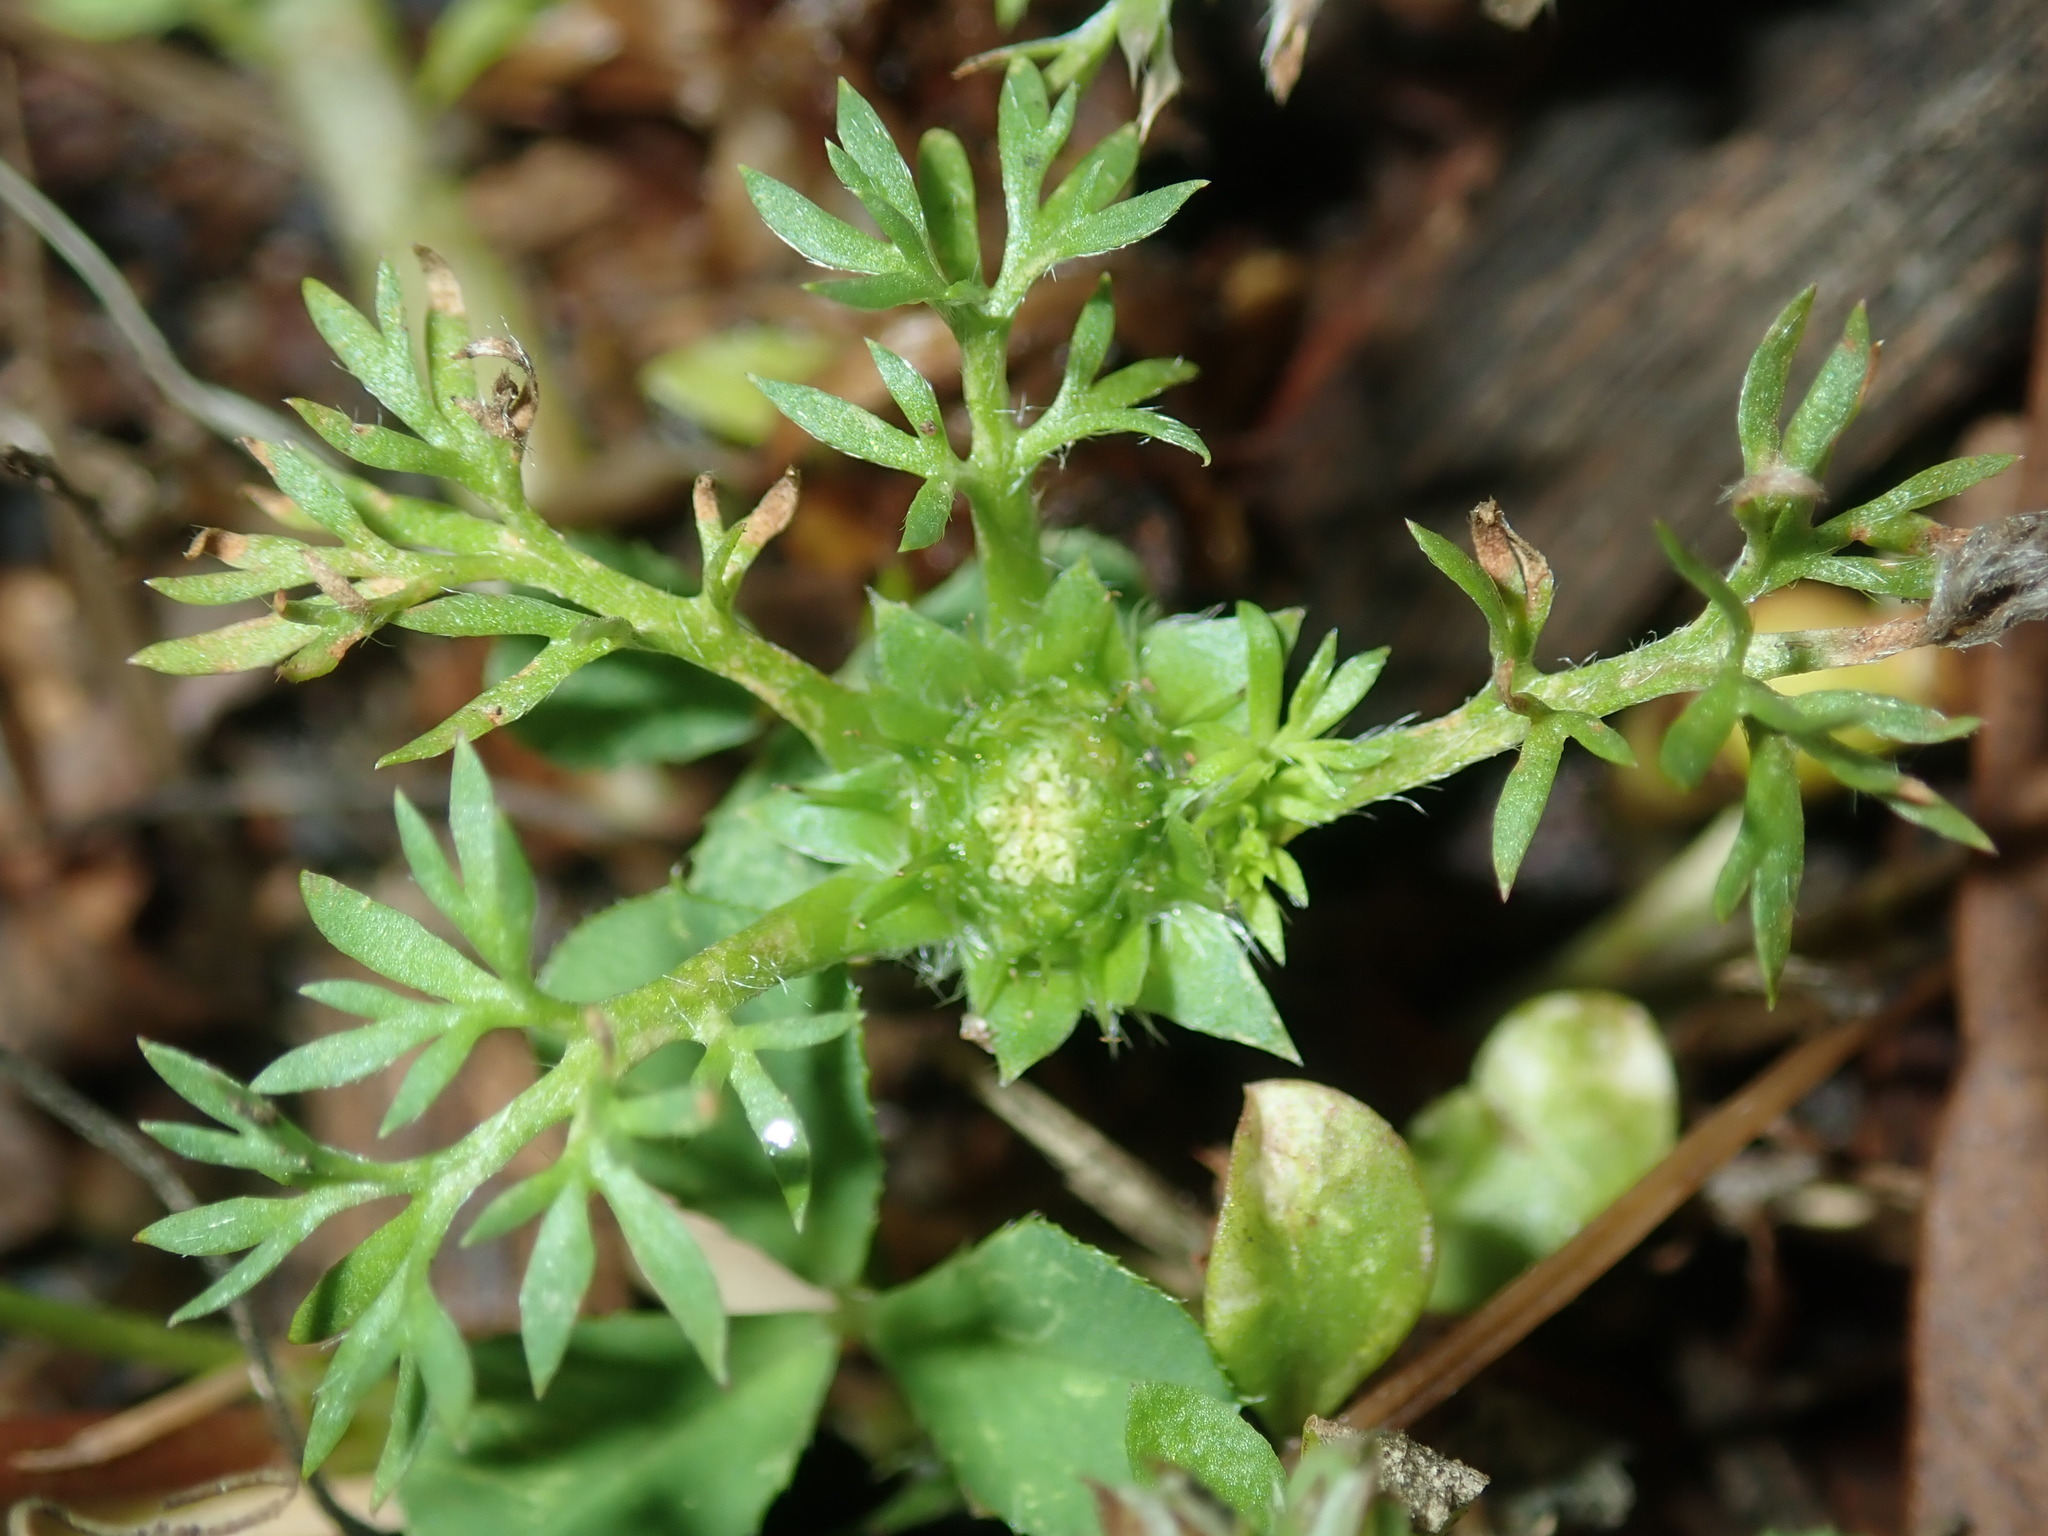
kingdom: Plantae
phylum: Tracheophyta
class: Magnoliopsida
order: Asterales
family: Asteraceae
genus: Soliva
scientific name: Soliva sessilis
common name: Field burrweed
